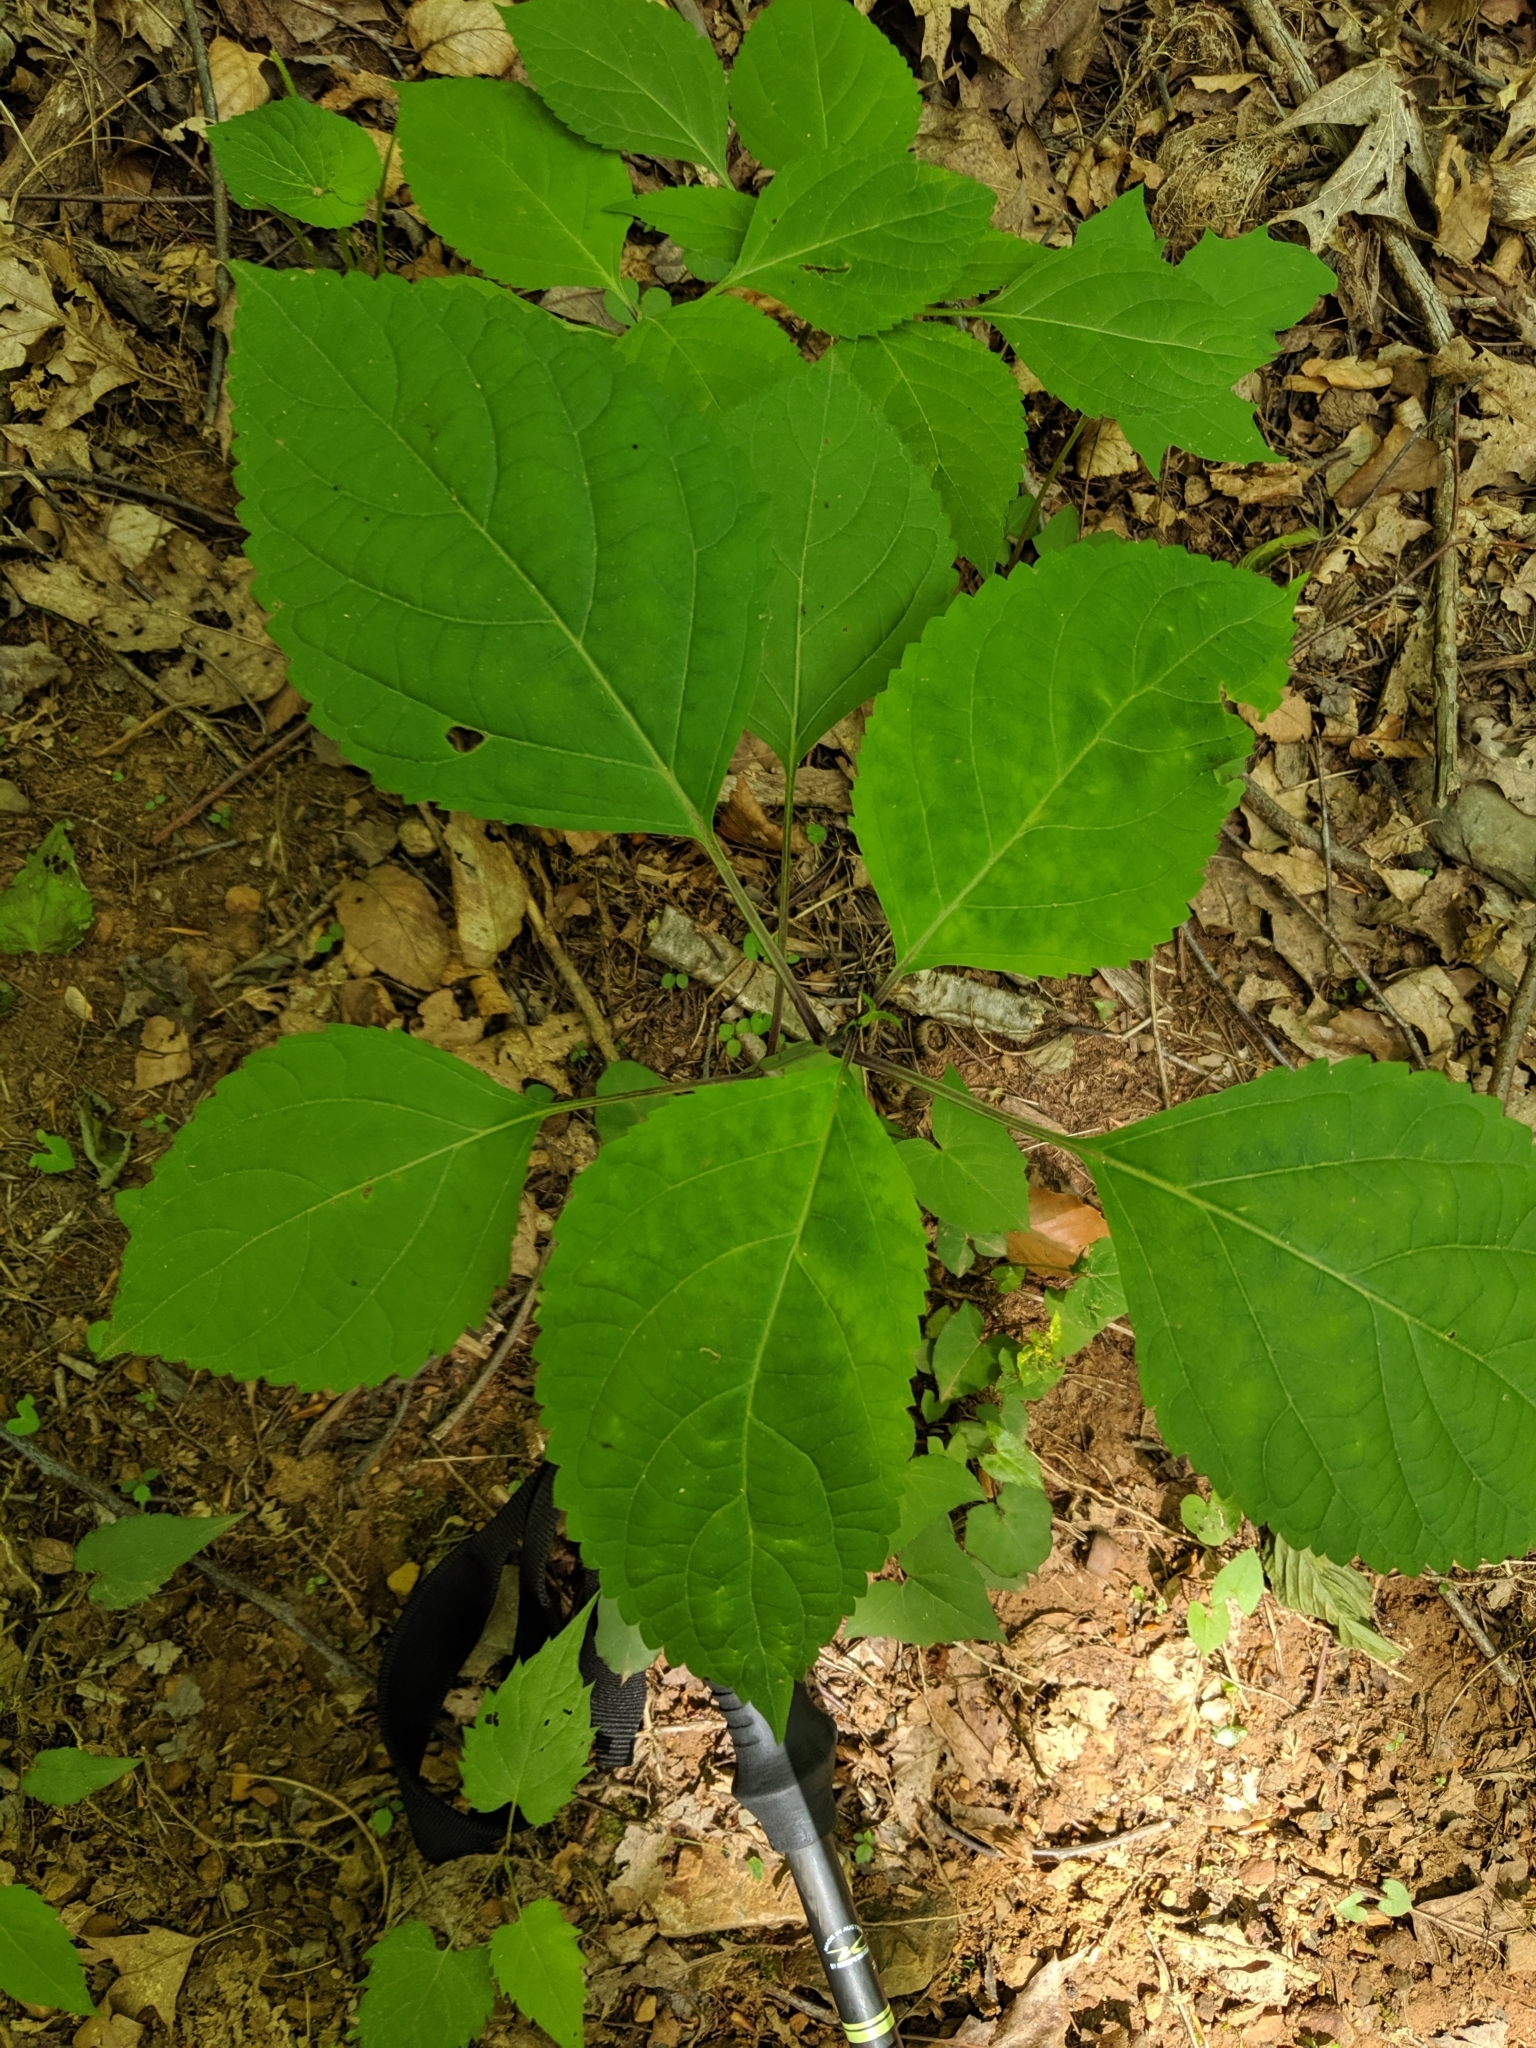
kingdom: Plantae
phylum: Tracheophyta
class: Magnoliopsida
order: Lamiales
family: Lamiaceae
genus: Collinsonia
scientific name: Collinsonia canadensis
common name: Northern horsebalm
